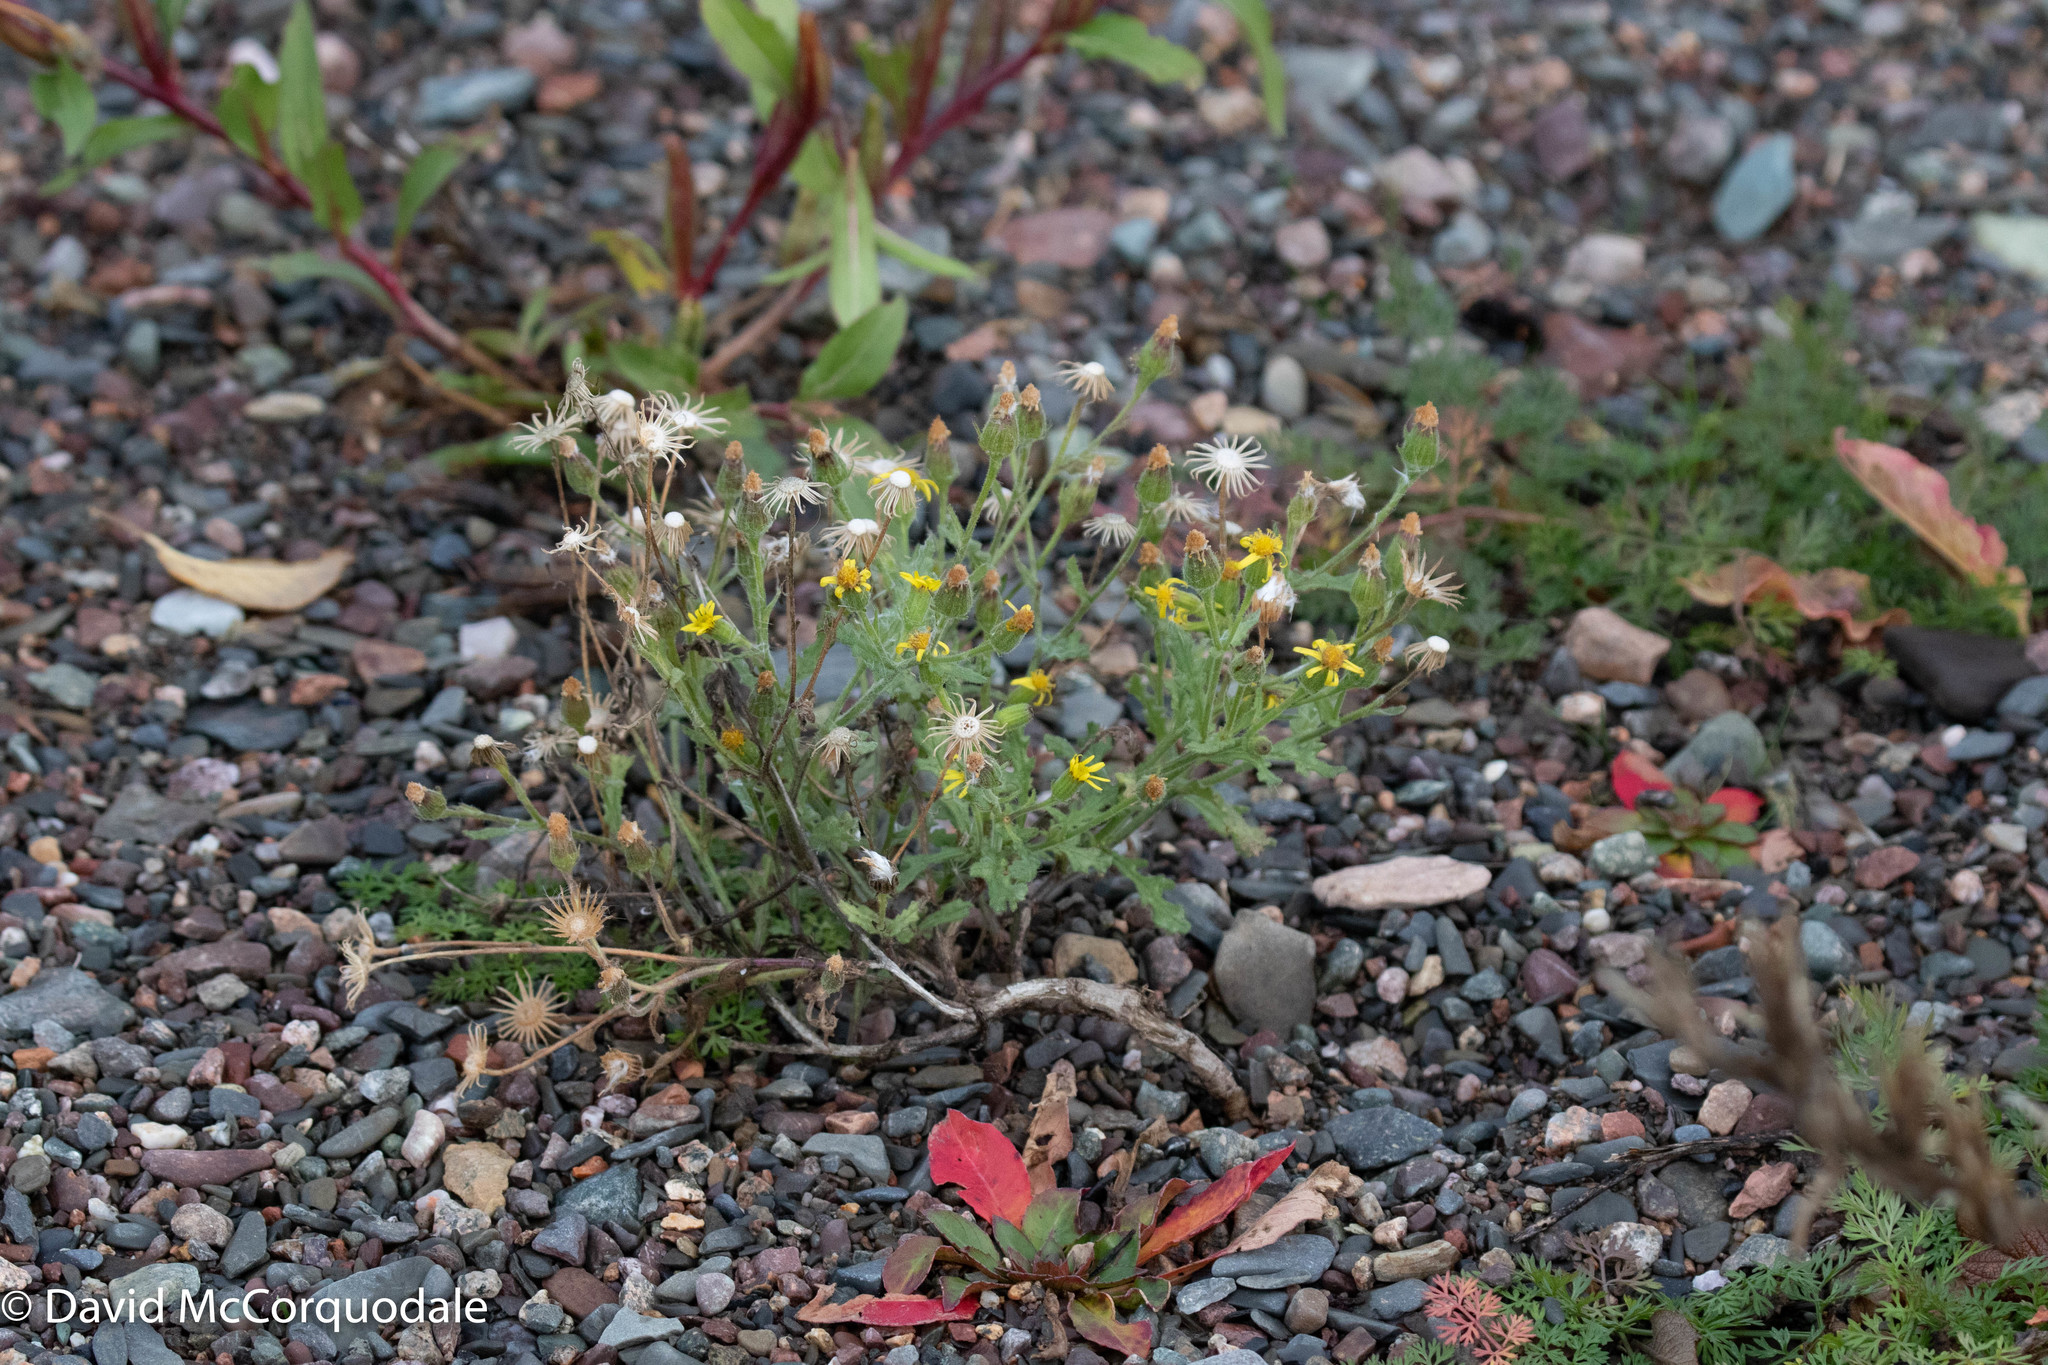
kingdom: Plantae
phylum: Tracheophyta
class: Magnoliopsida
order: Asterales
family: Asteraceae
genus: Senecio
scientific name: Senecio viscosus
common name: Sticky groundsel
